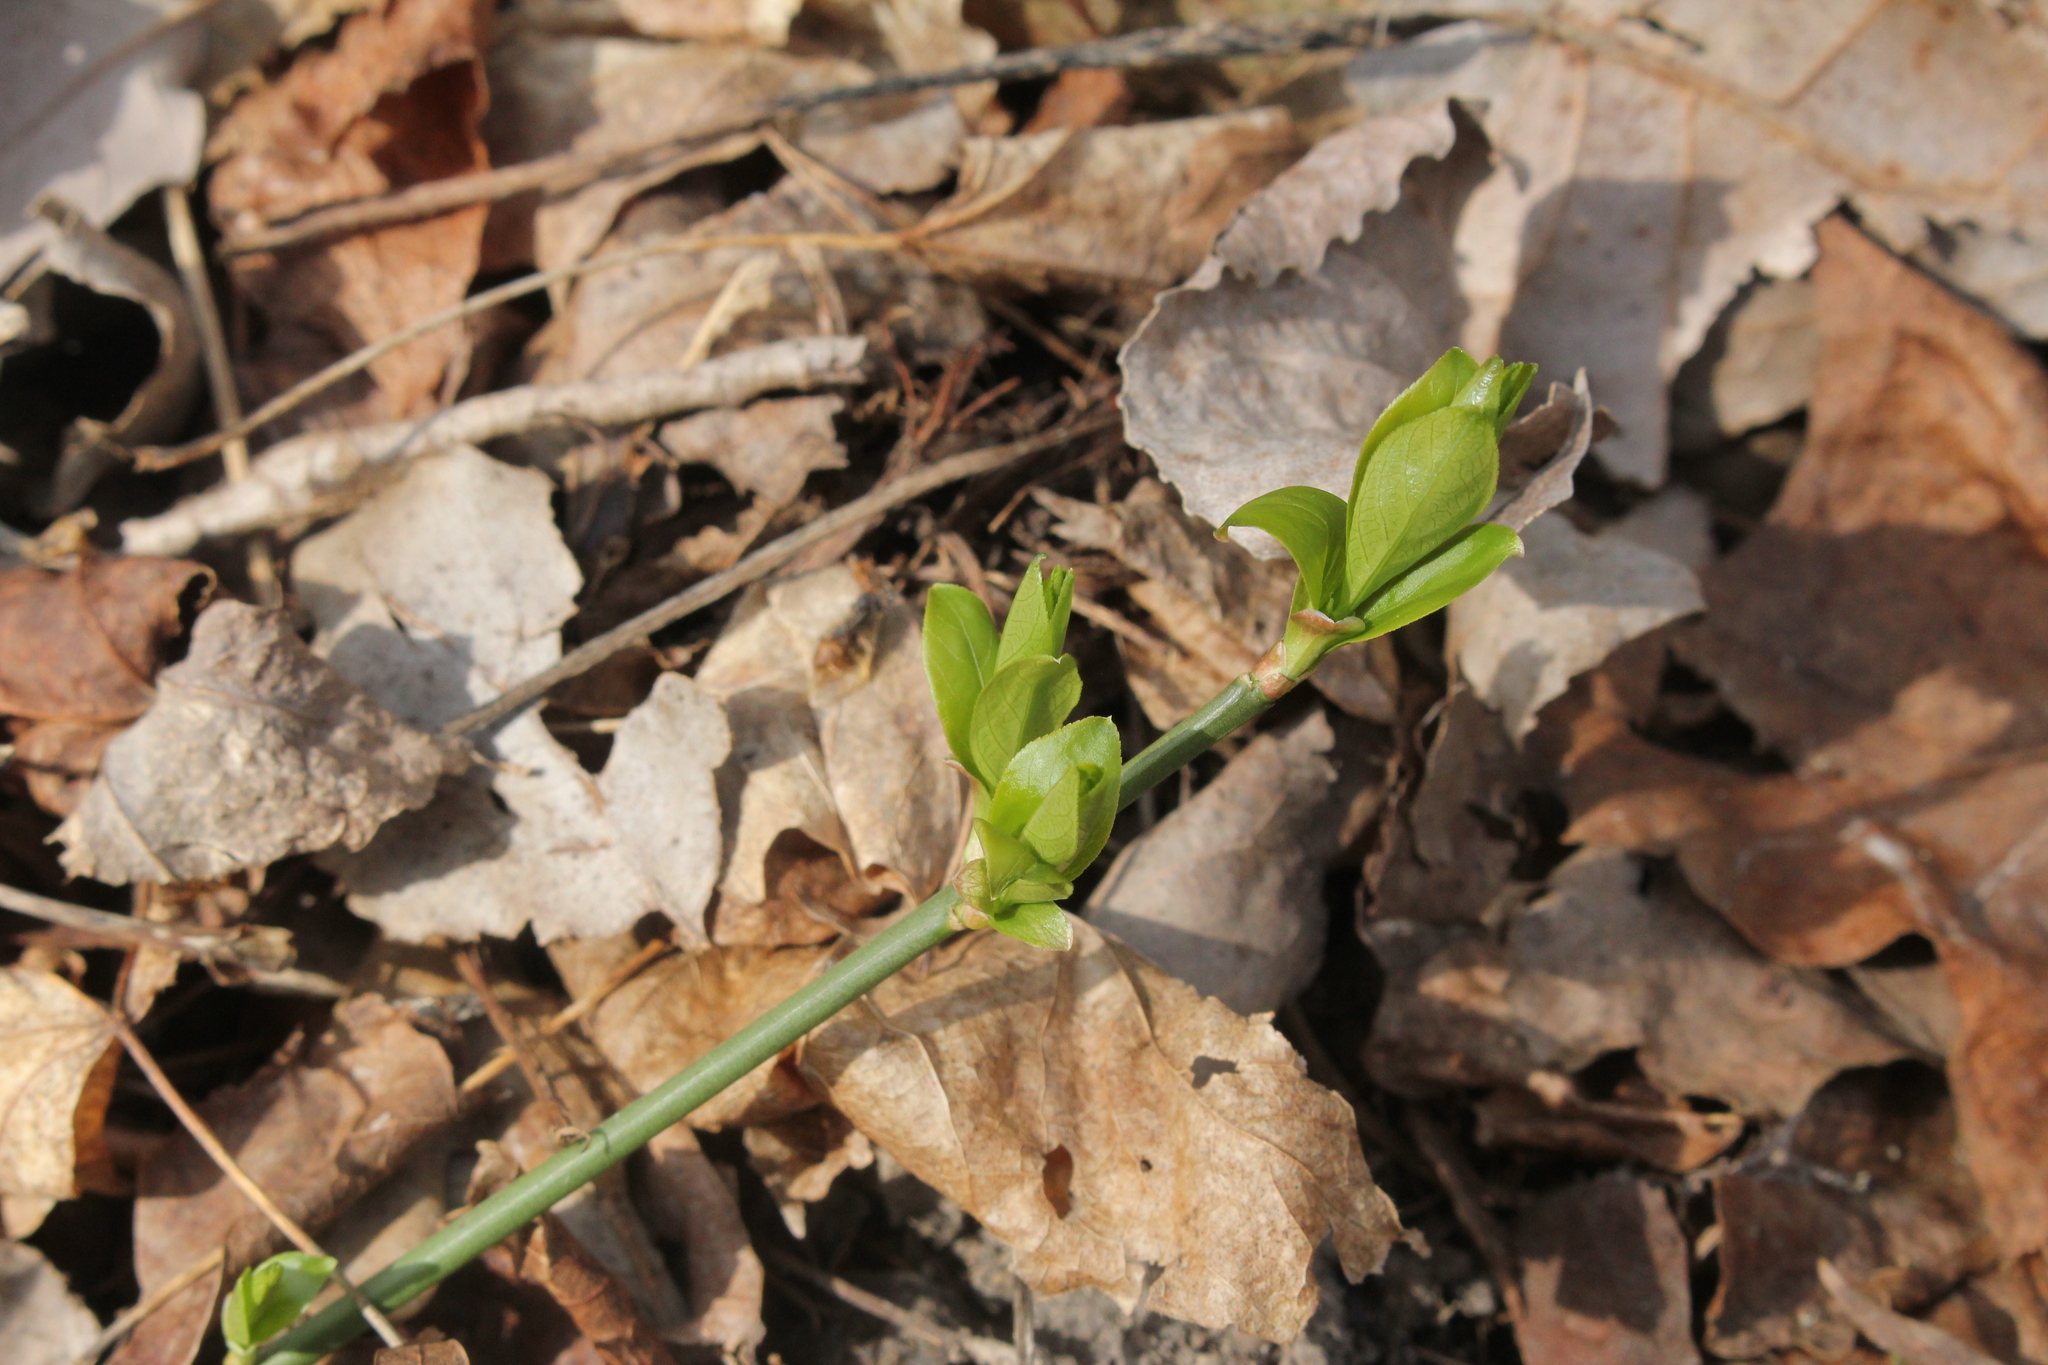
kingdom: Plantae
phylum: Tracheophyta
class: Magnoliopsida
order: Celastrales
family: Celastraceae
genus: Euonymus
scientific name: Euonymus obovatus
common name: Running strawberry-bush
